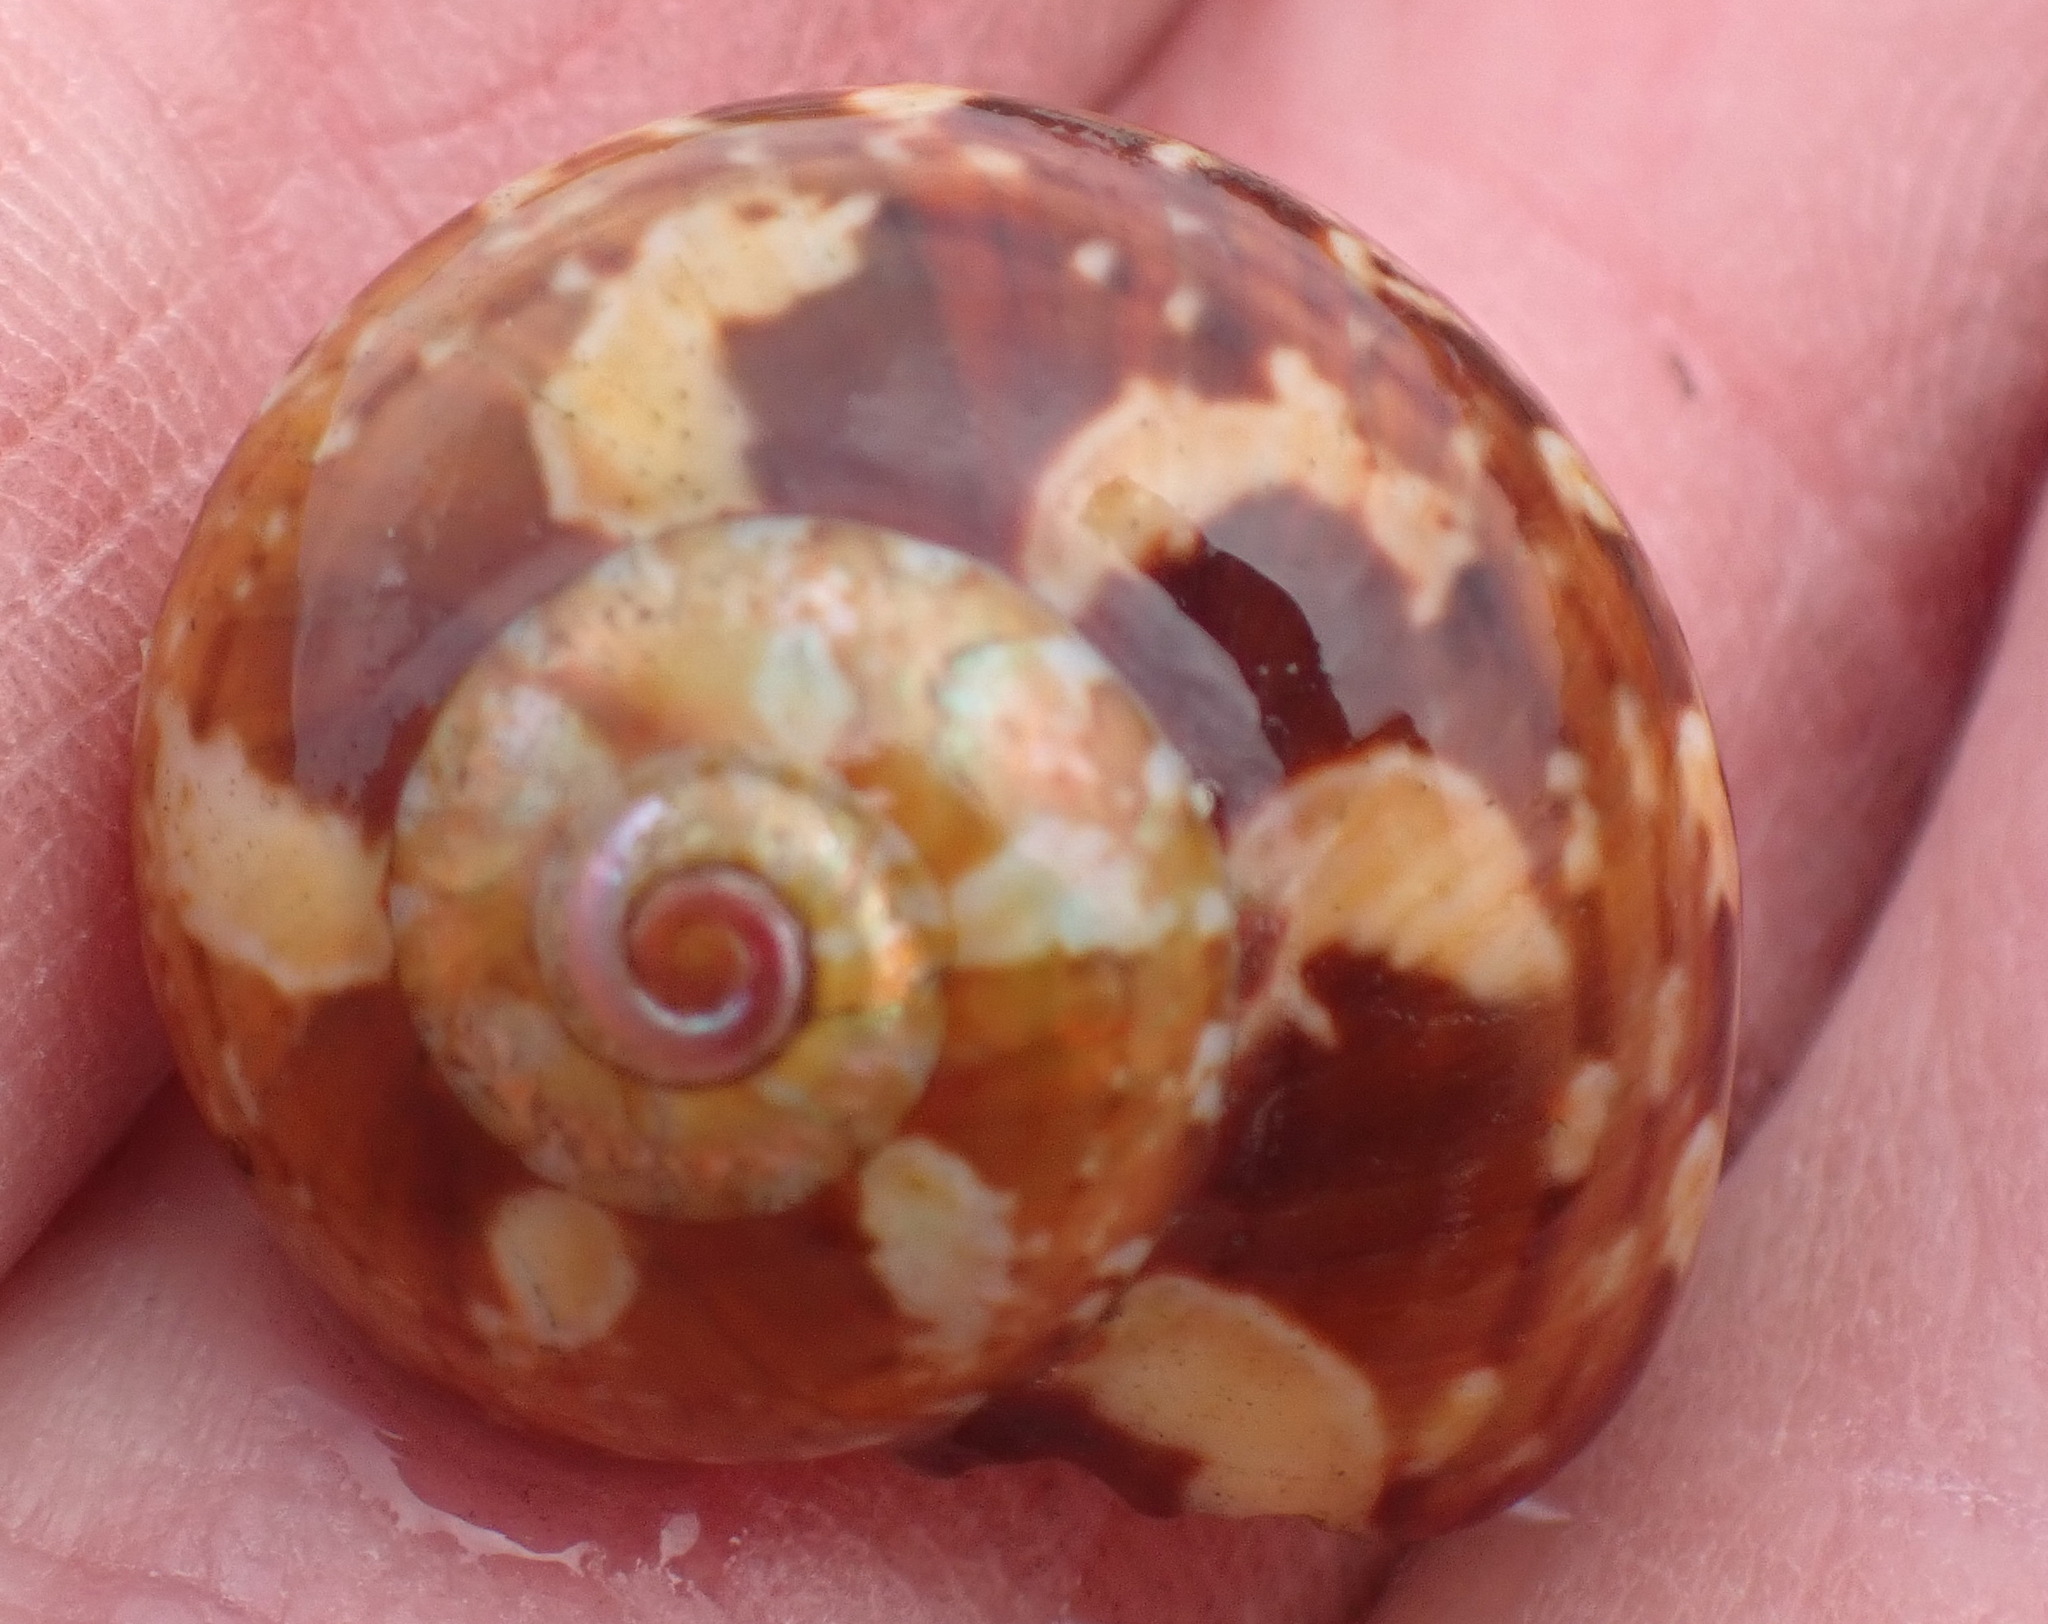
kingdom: Animalia
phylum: Mollusca
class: Gastropoda
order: Trochida
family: Turbinidae
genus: Turbo
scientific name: Turbo cidaris
